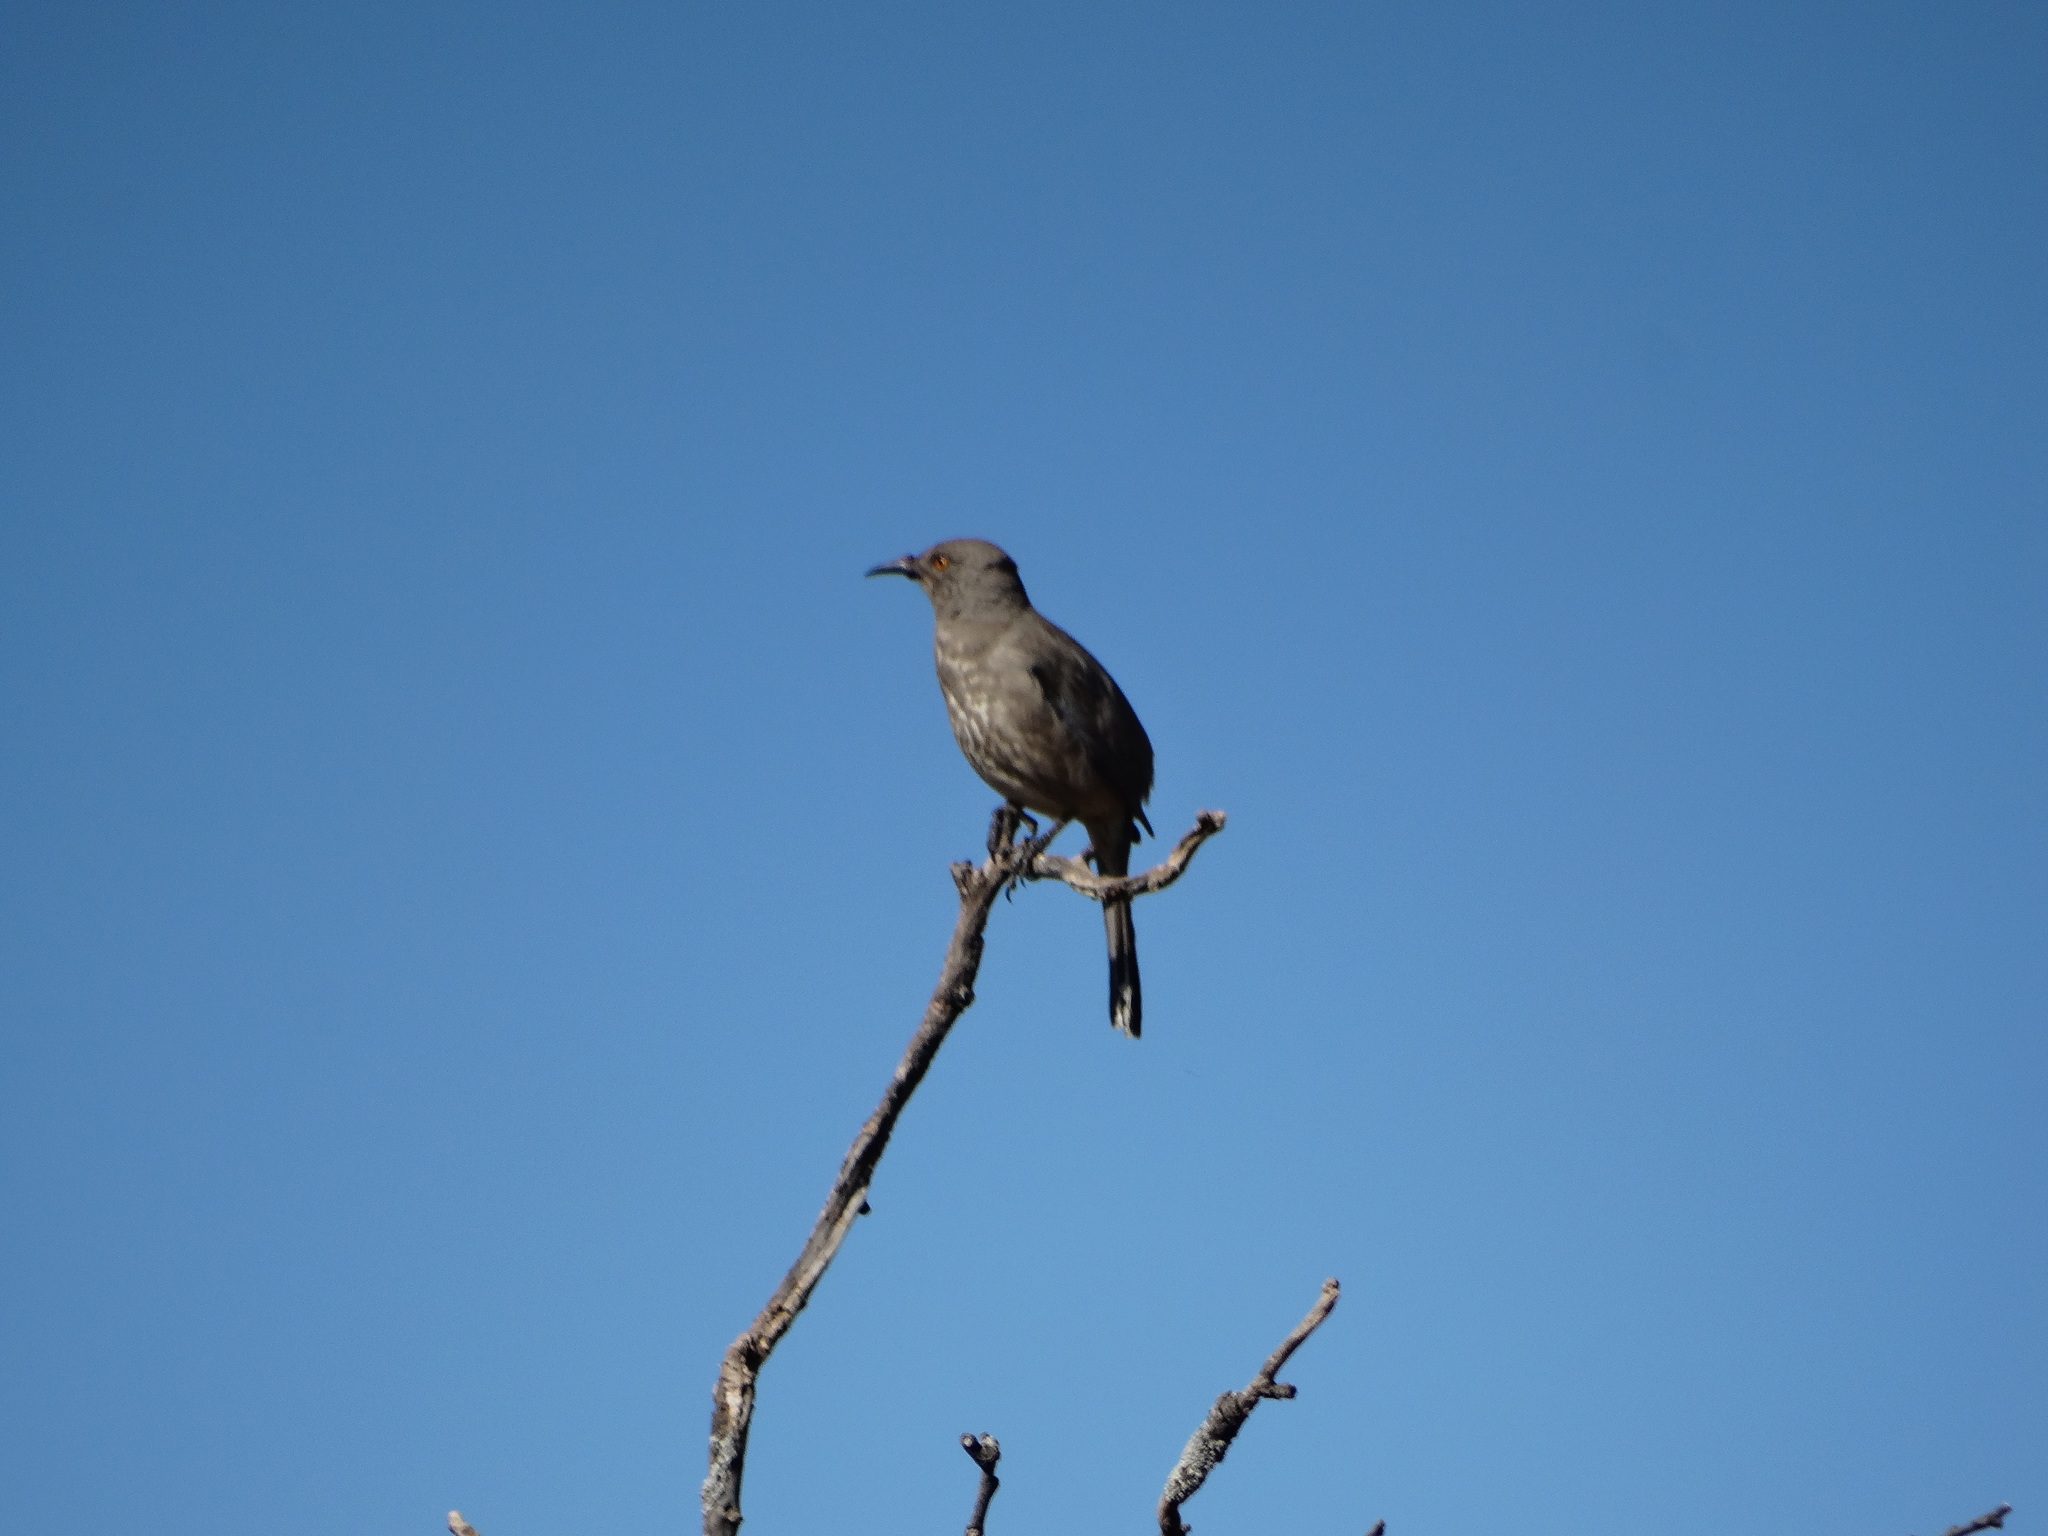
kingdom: Animalia
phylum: Chordata
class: Aves
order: Passeriformes
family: Mimidae
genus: Toxostoma
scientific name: Toxostoma curvirostre
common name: Curve-billed thrasher
